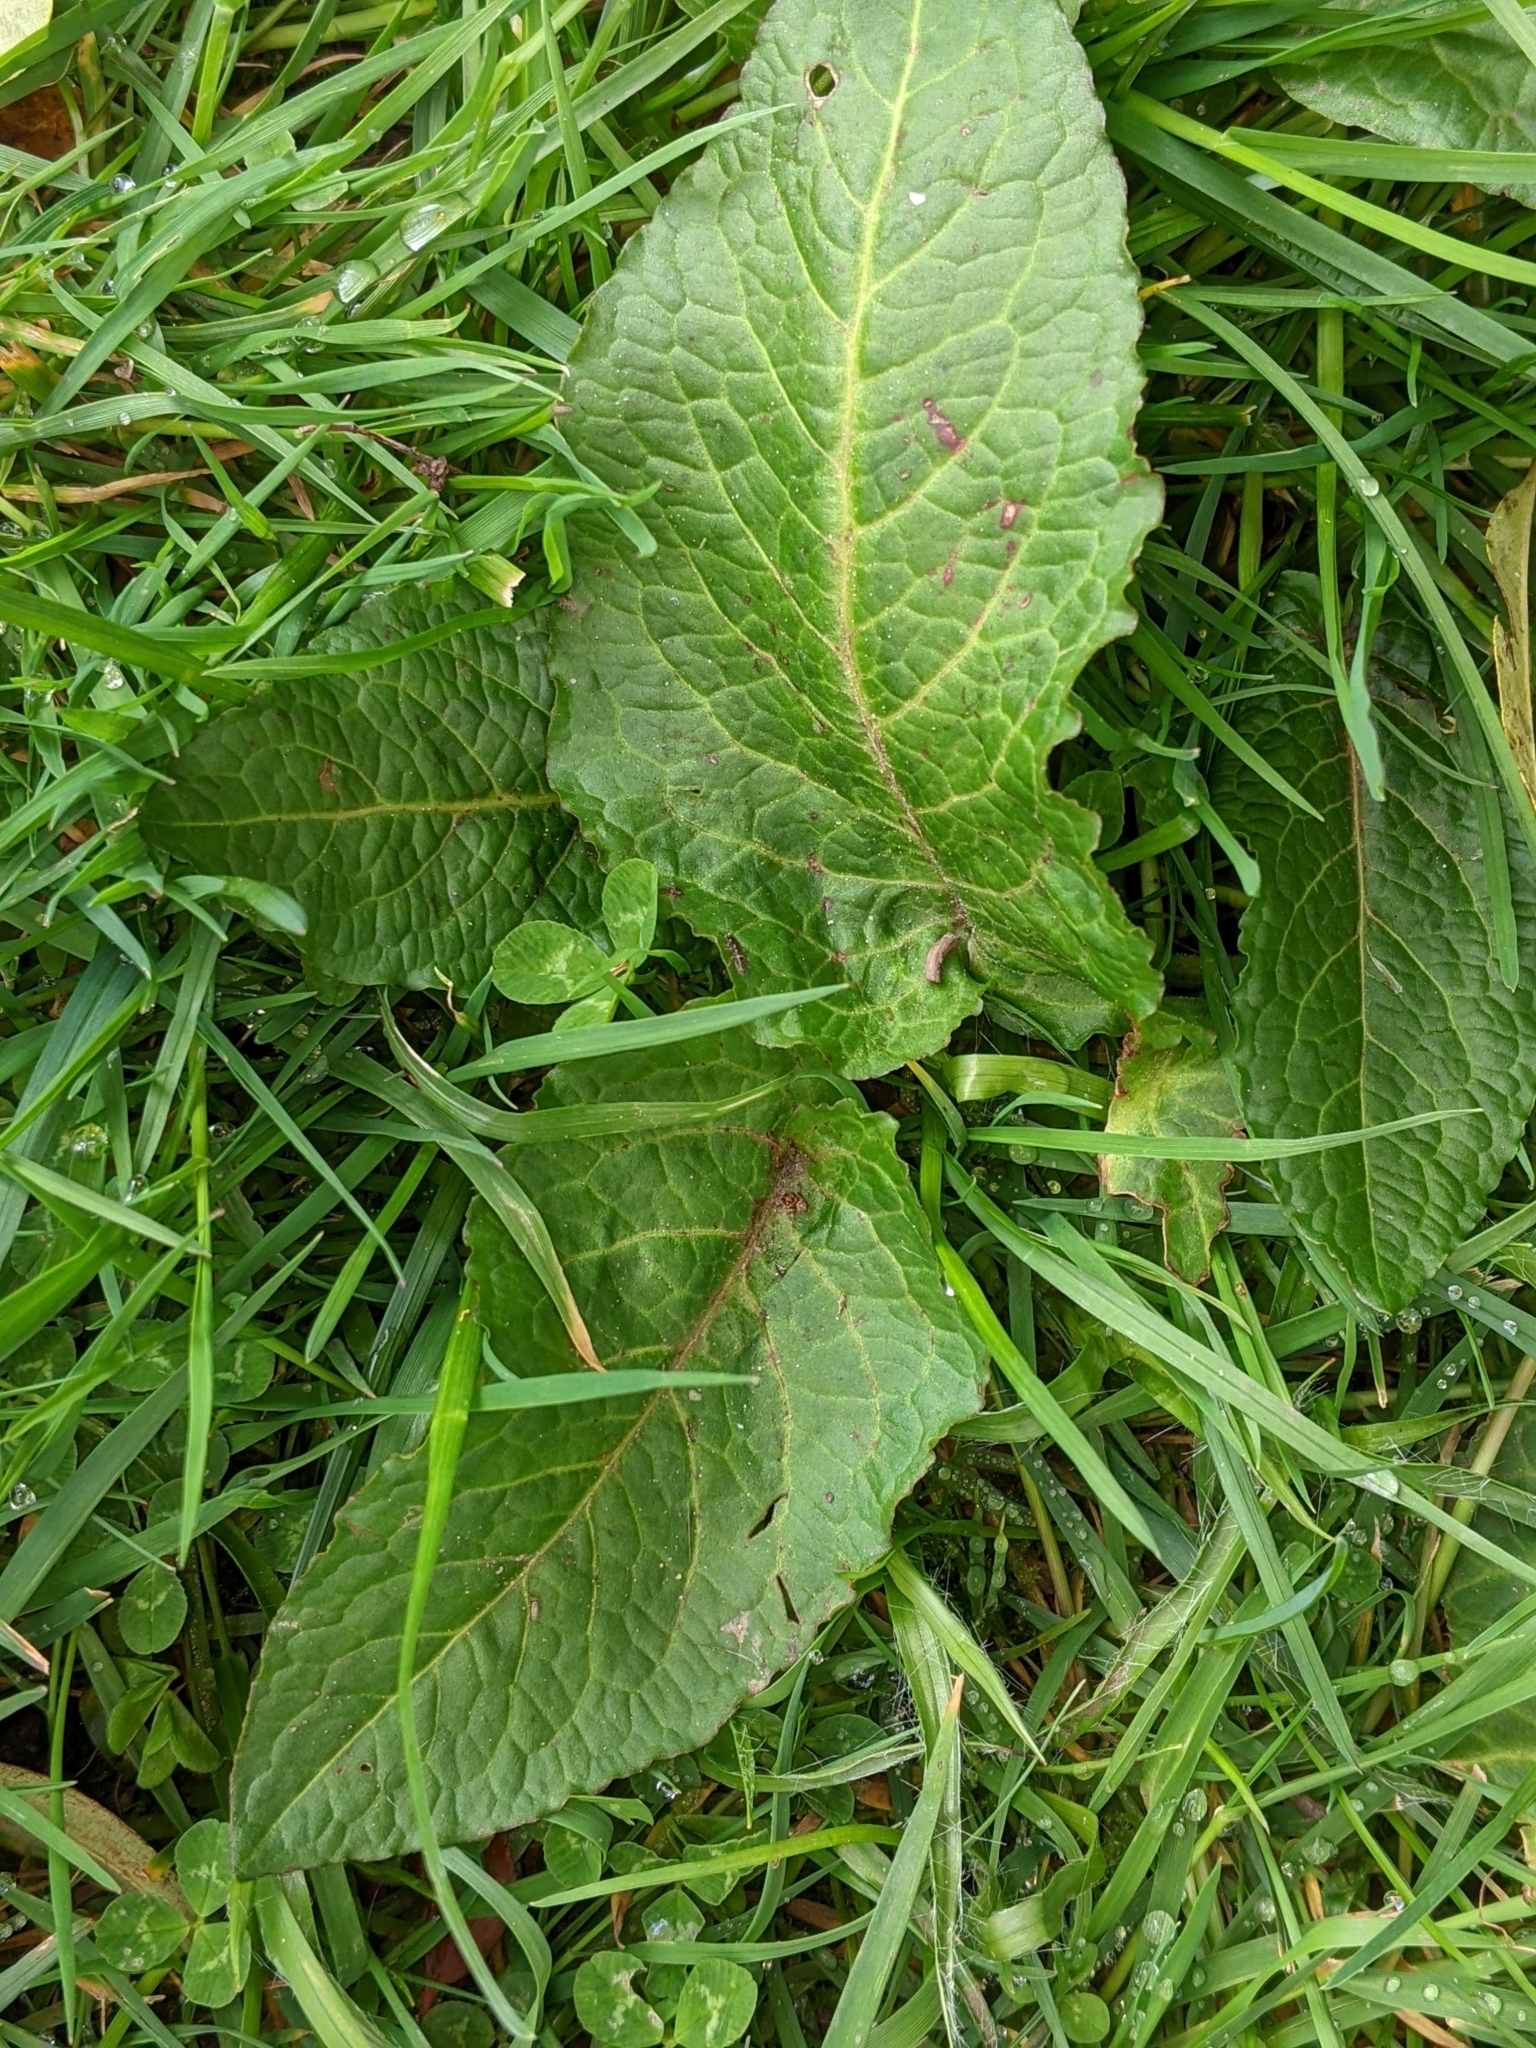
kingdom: Plantae
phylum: Tracheophyta
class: Magnoliopsida
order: Caryophyllales
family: Polygonaceae
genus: Rumex
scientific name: Rumex obtusifolius
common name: Bitter dock
